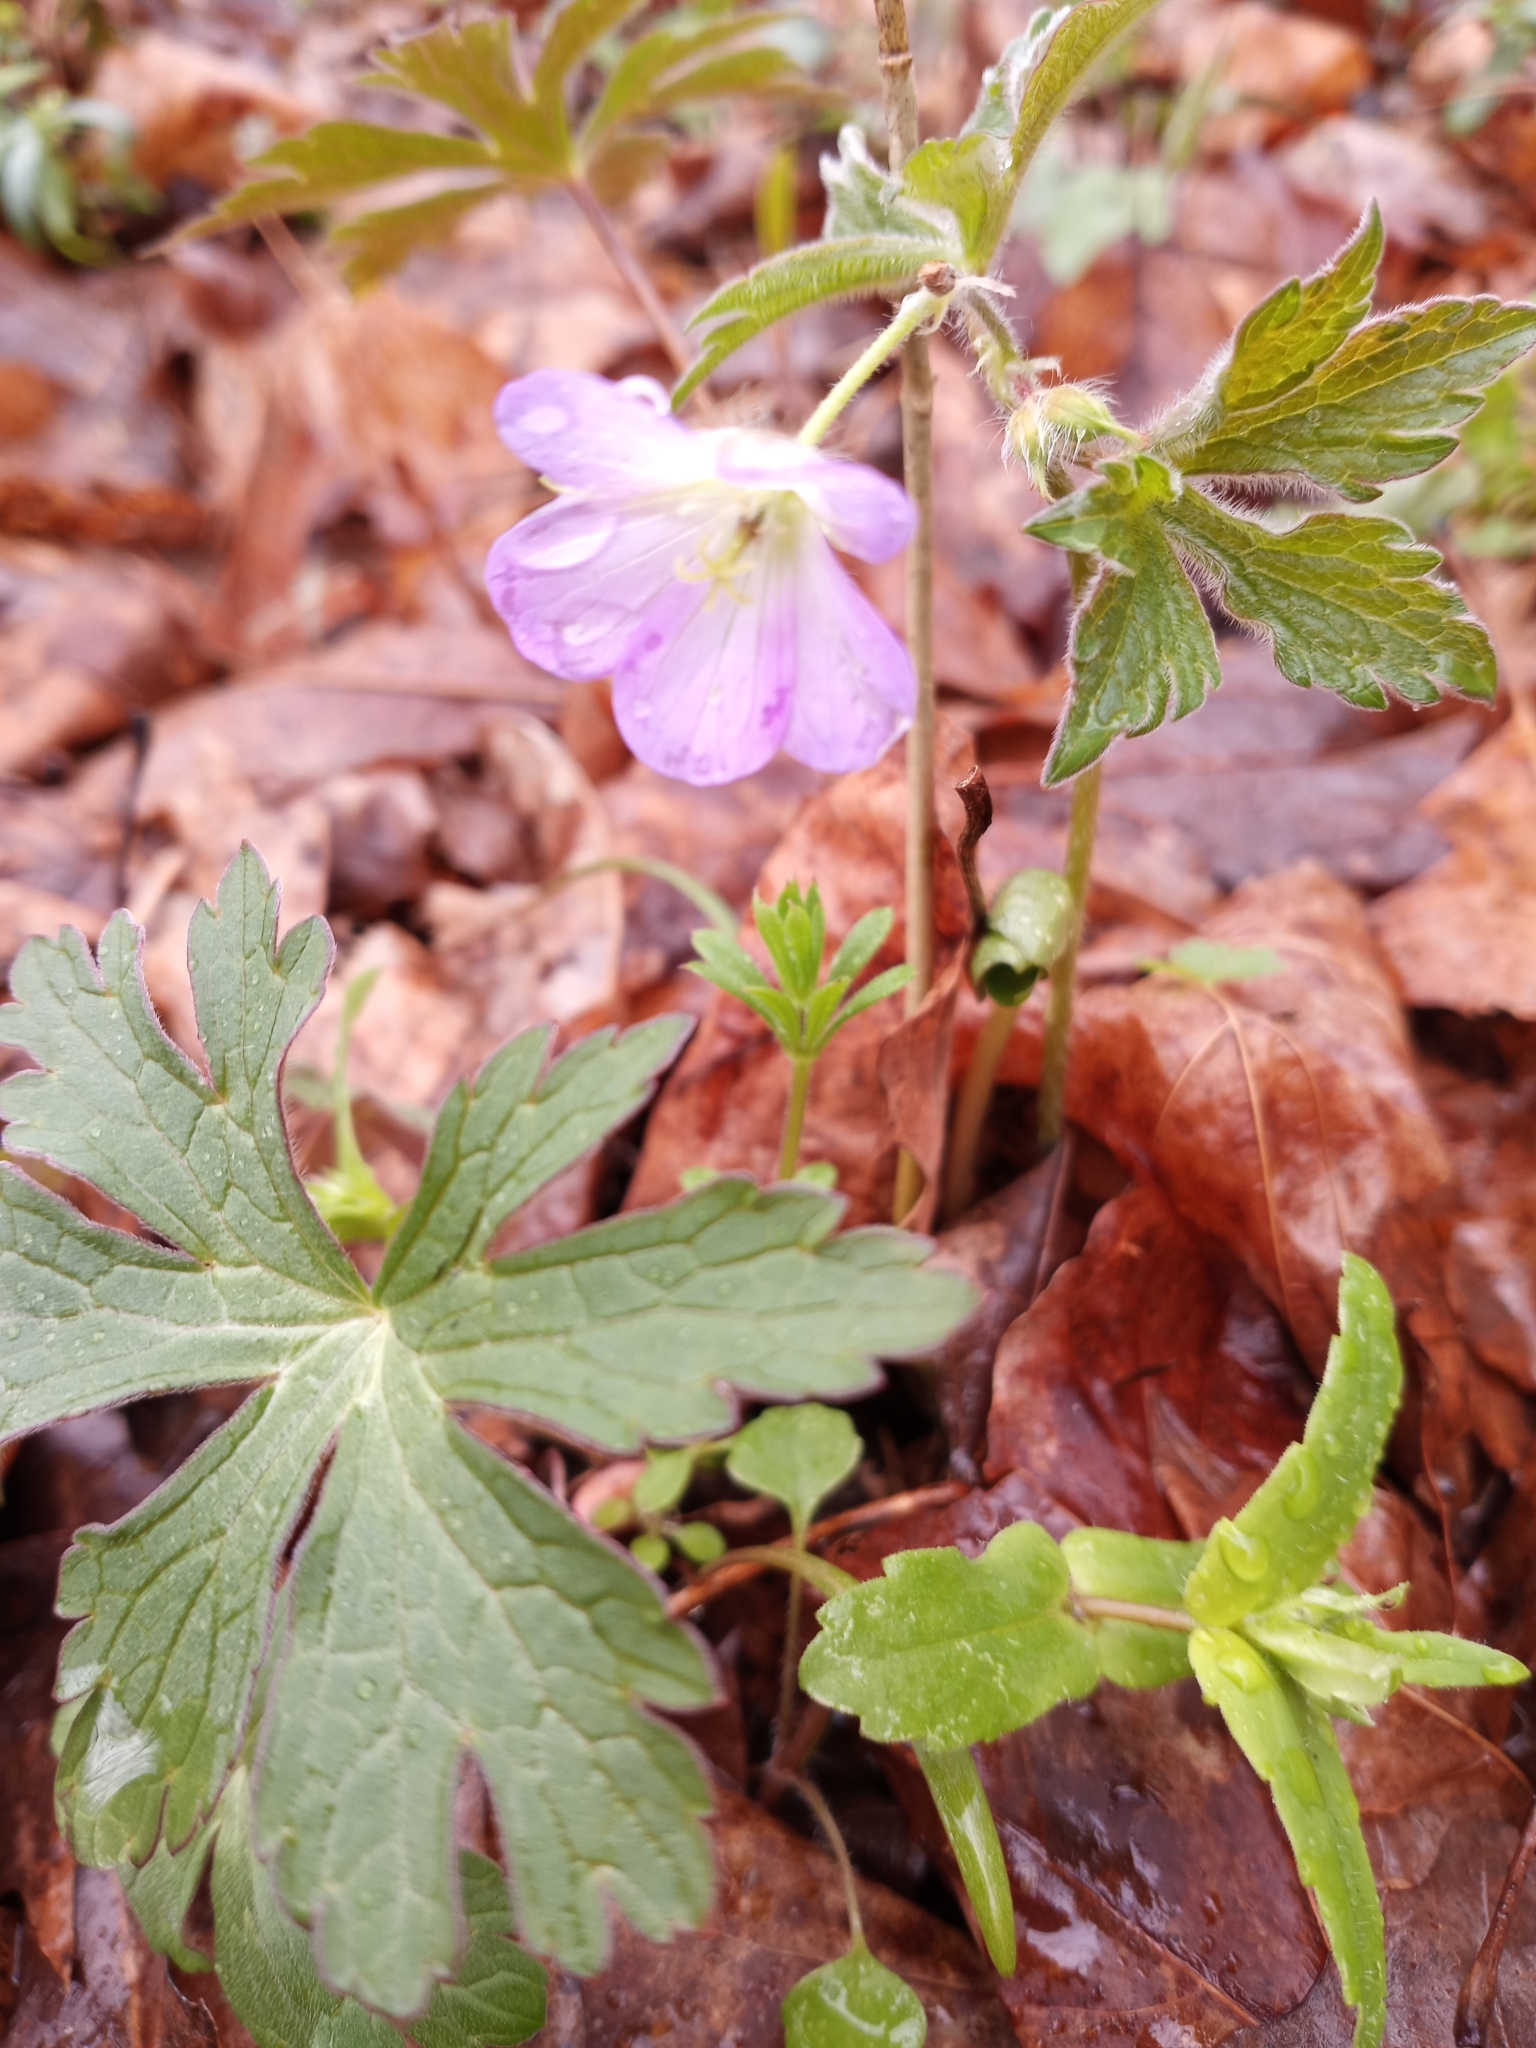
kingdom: Plantae
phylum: Tracheophyta
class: Magnoliopsida
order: Geraniales
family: Geraniaceae
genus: Geranium
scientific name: Geranium maculatum
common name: Spotted geranium
